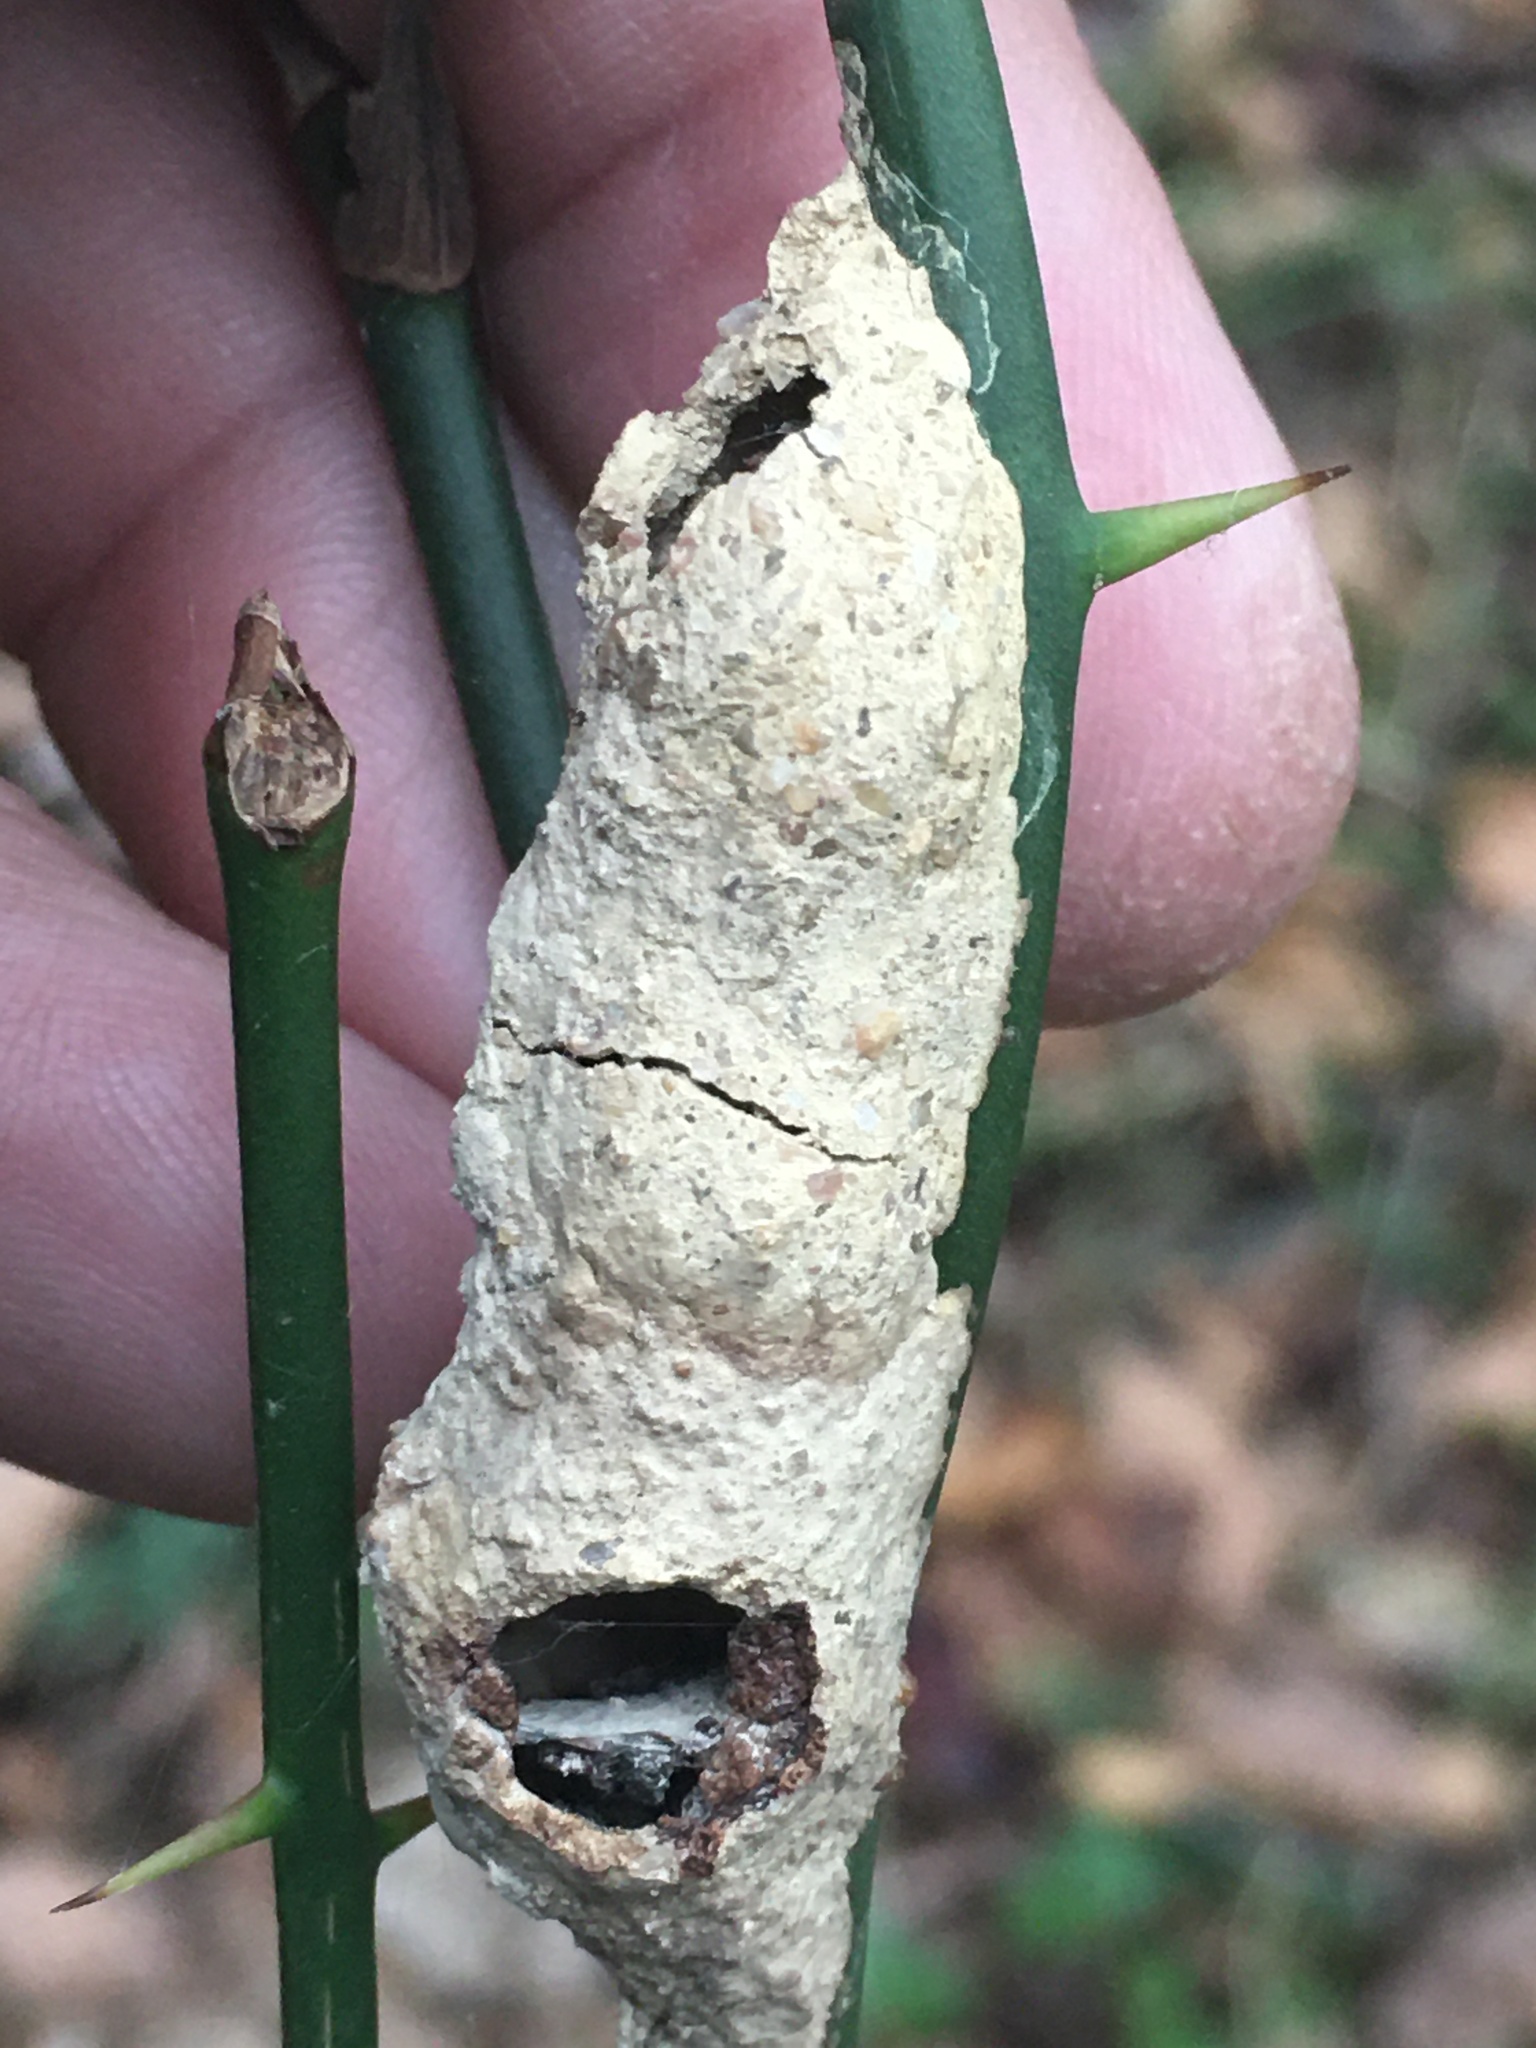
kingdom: Animalia
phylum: Arthropoda
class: Insecta
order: Hymenoptera
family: Sphecidae
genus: Sceliphron
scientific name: Sceliphron caementarium
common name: Mud dauber
